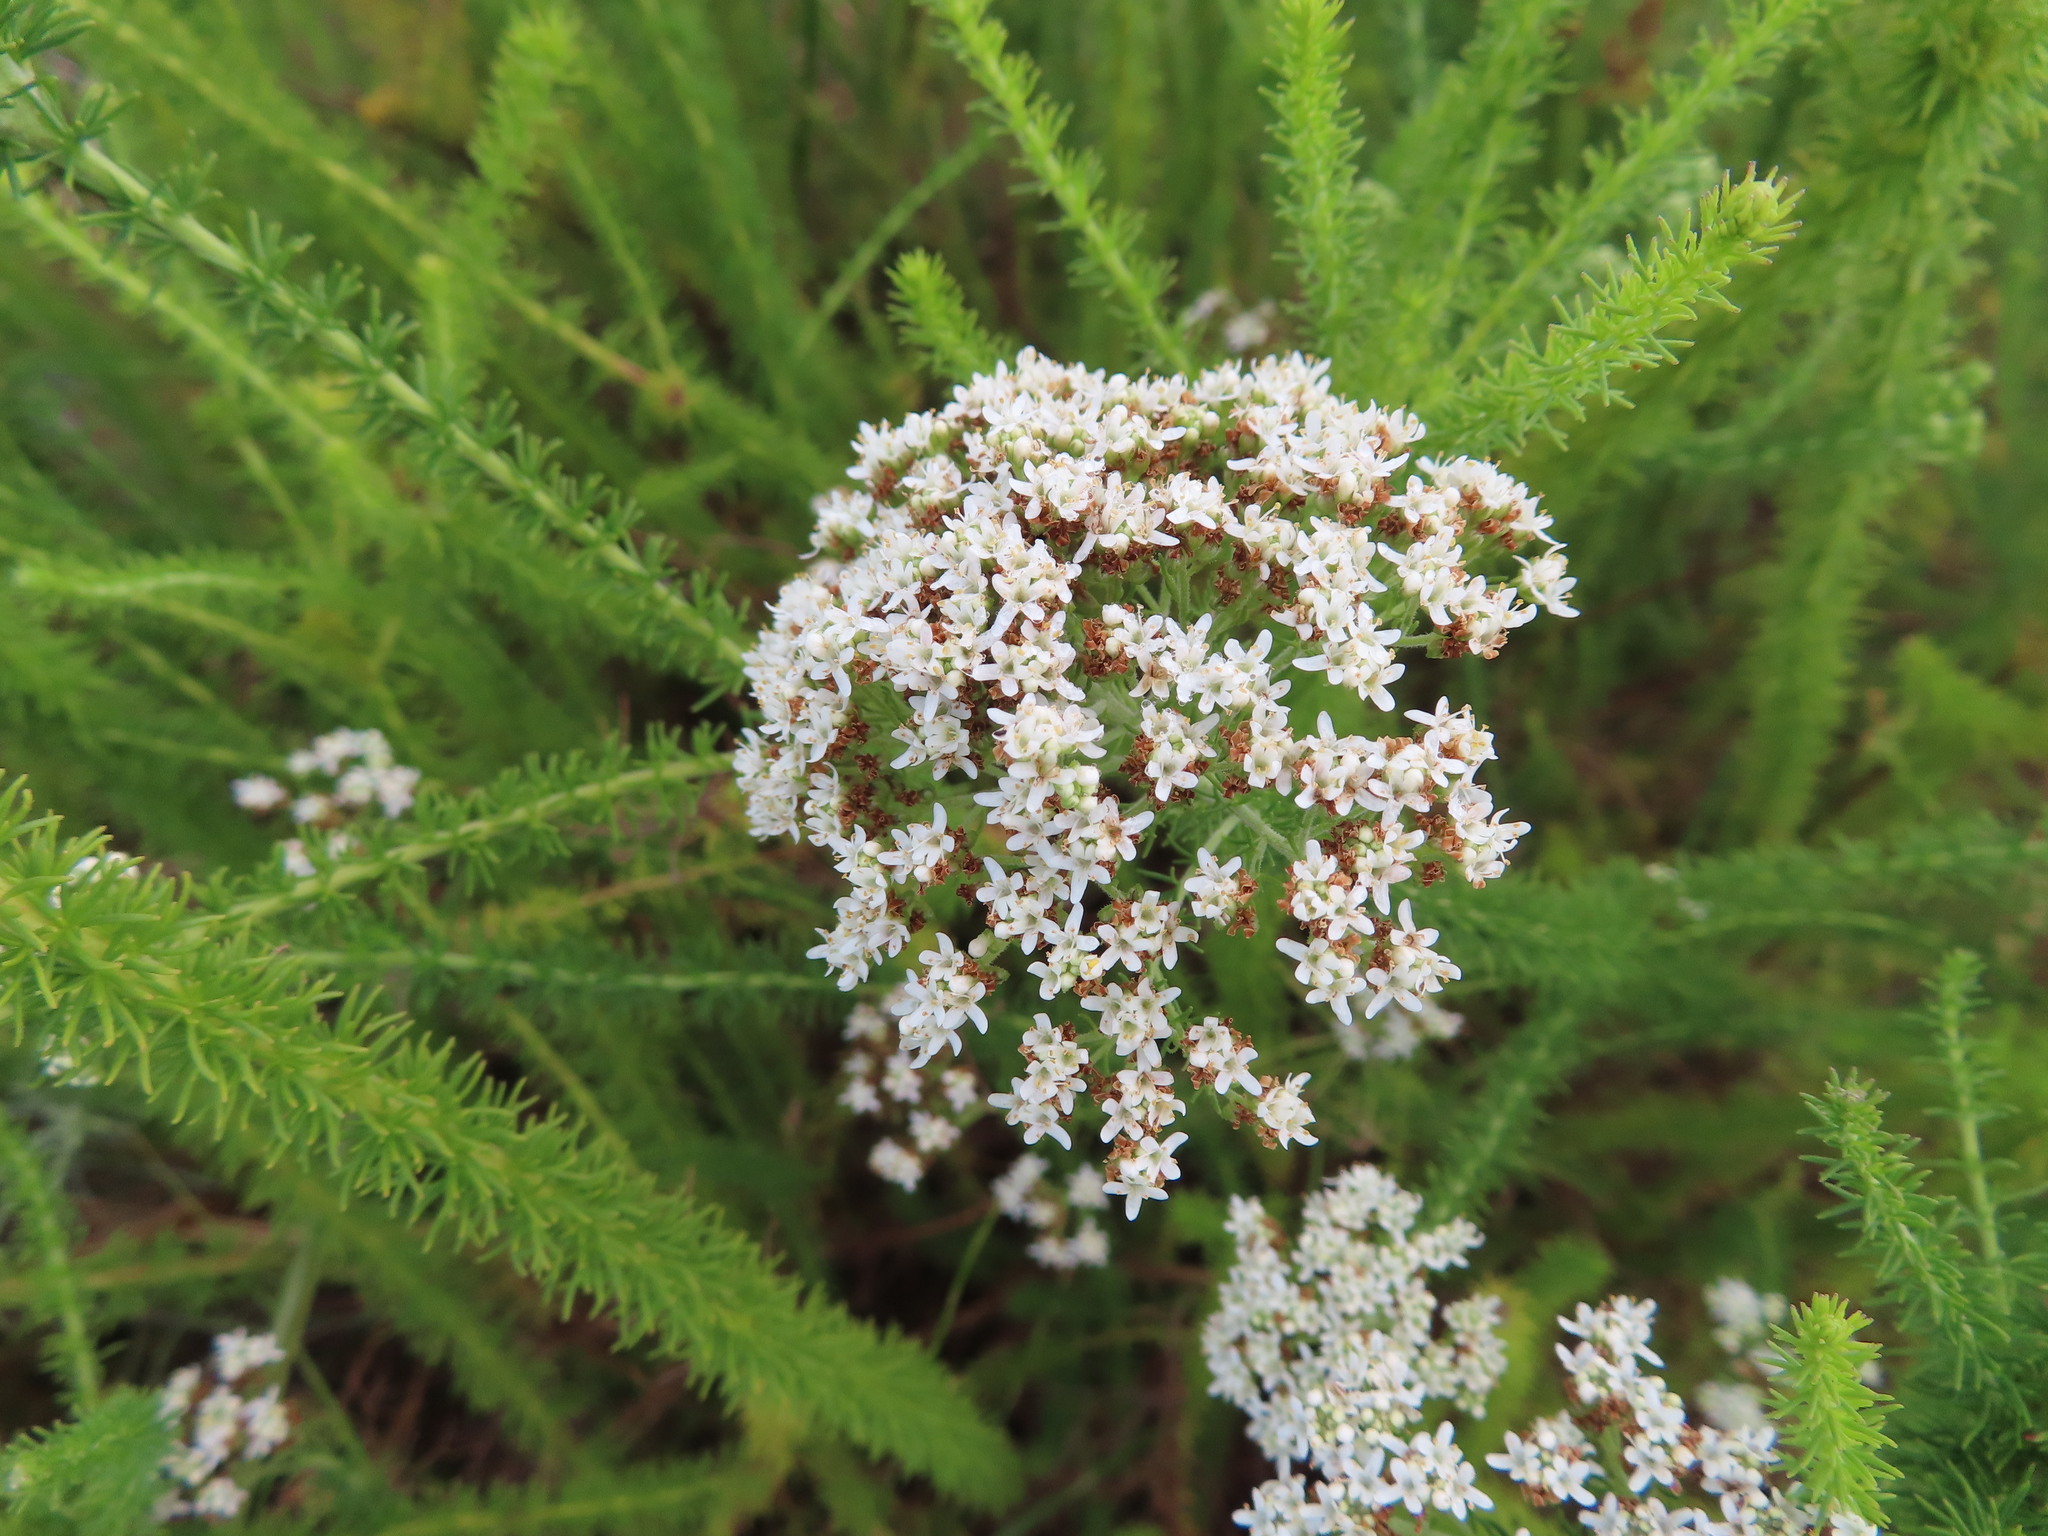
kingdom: Plantae
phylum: Tracheophyta
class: Magnoliopsida
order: Lamiales
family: Scrophulariaceae
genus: Selago
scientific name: Selago corymbosa
